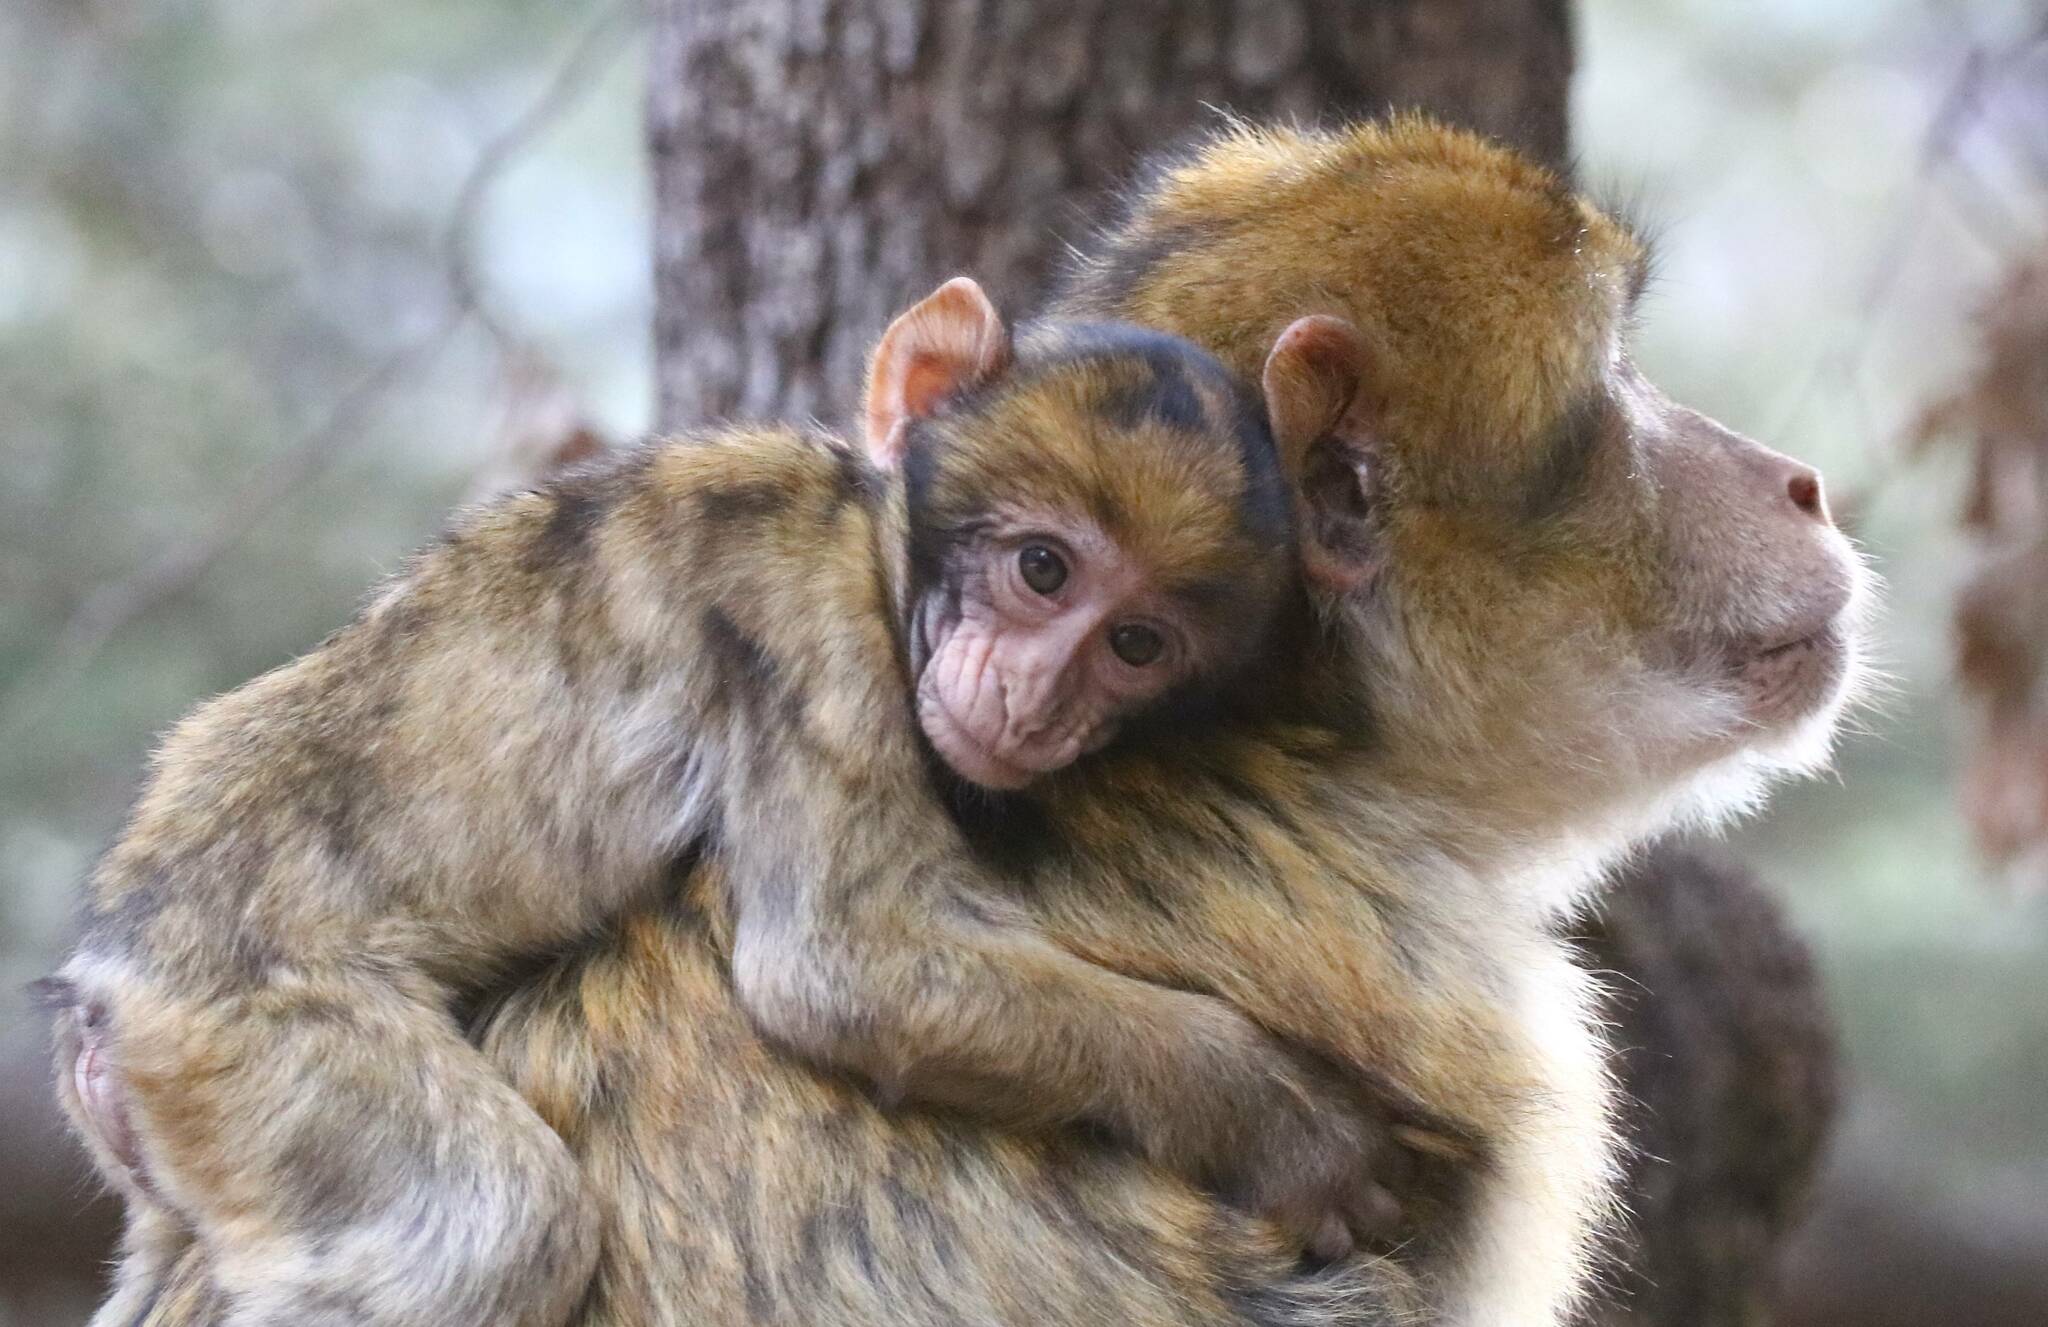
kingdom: Animalia
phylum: Chordata
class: Mammalia
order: Primates
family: Cercopithecidae
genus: Macaca
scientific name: Macaca sylvanus
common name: Barbary macaque
